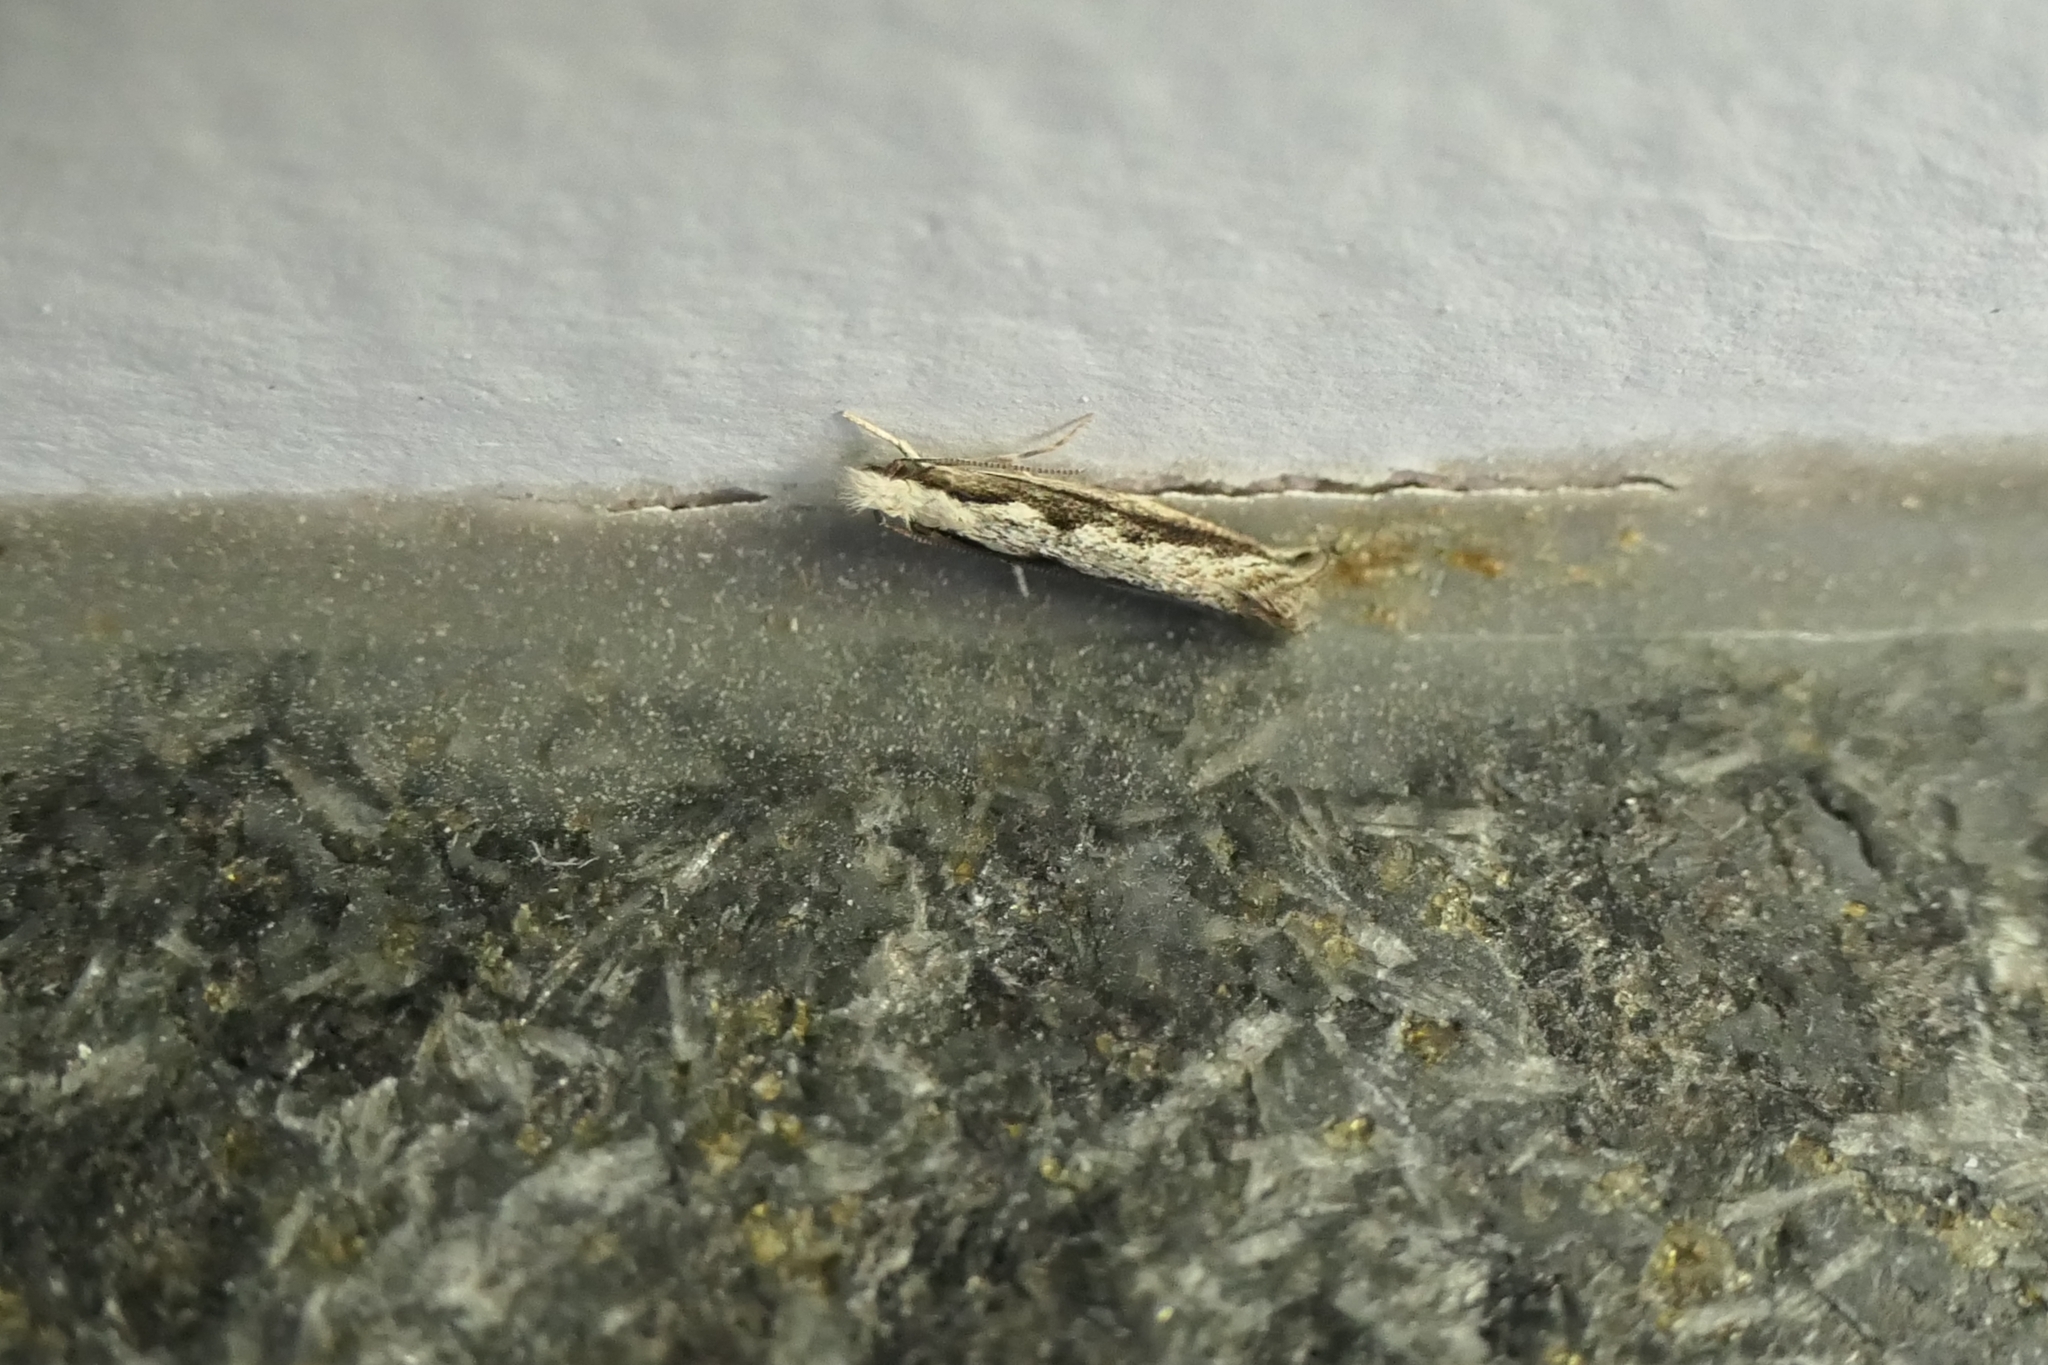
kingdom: Animalia
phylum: Arthropoda
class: Insecta
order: Lepidoptera
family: Tineidae
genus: Erechthias
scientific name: Erechthias fulguritella
